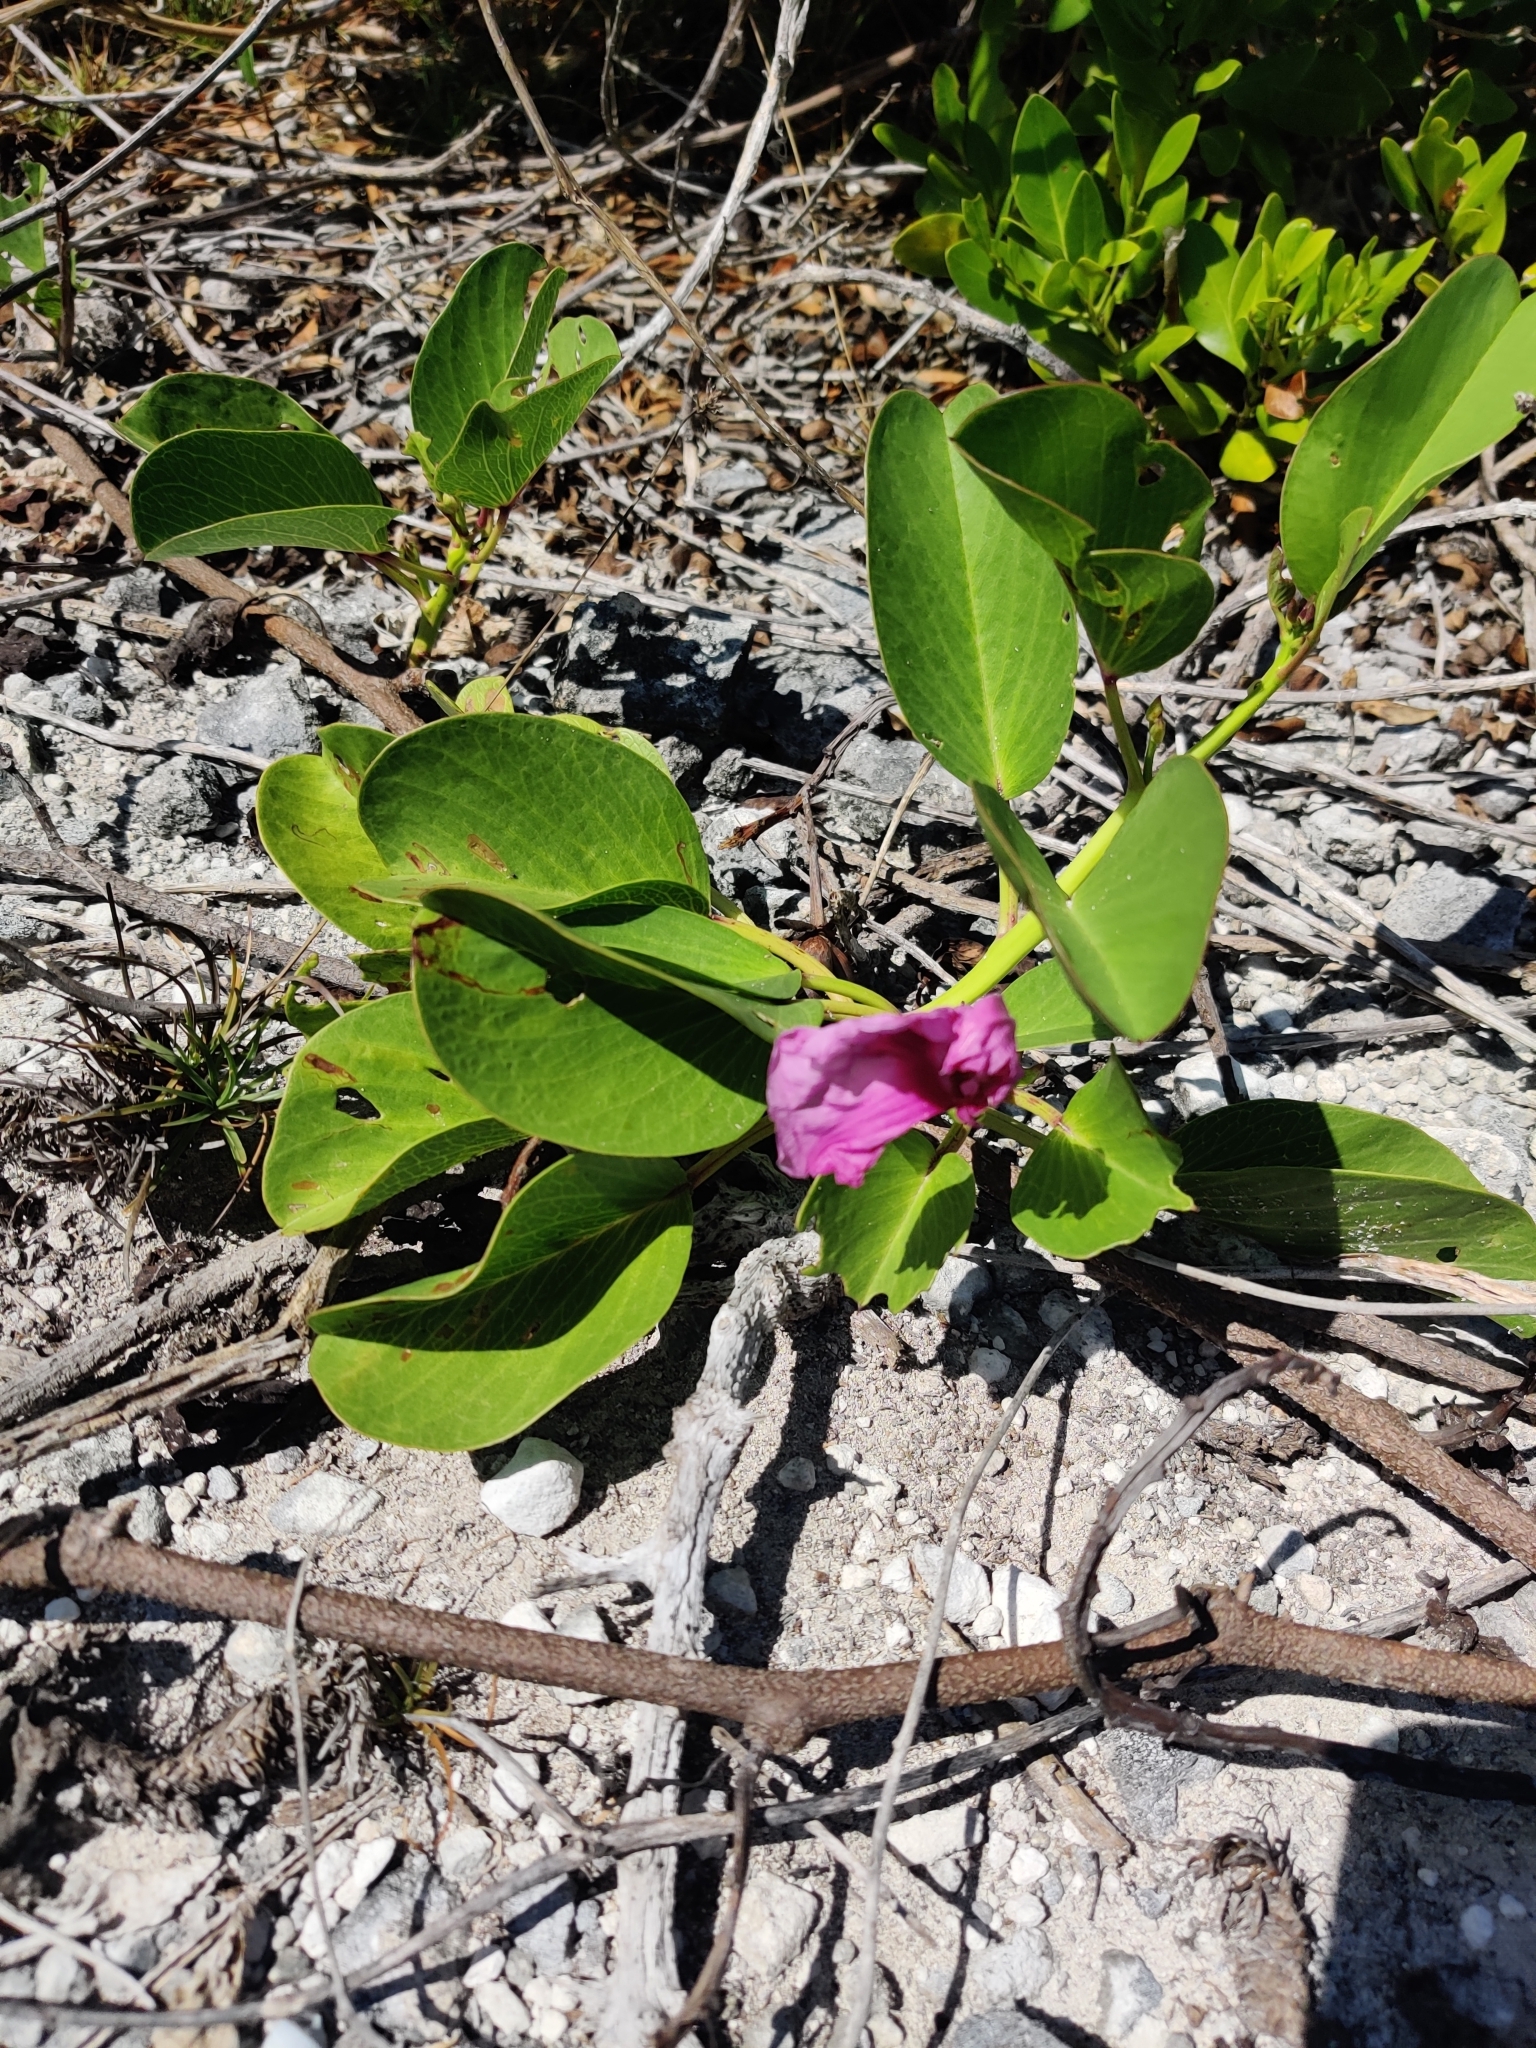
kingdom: Plantae
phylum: Tracheophyta
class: Magnoliopsida
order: Solanales
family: Convolvulaceae
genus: Ipomoea
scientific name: Ipomoea pes-caprae
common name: Beach morning glory
